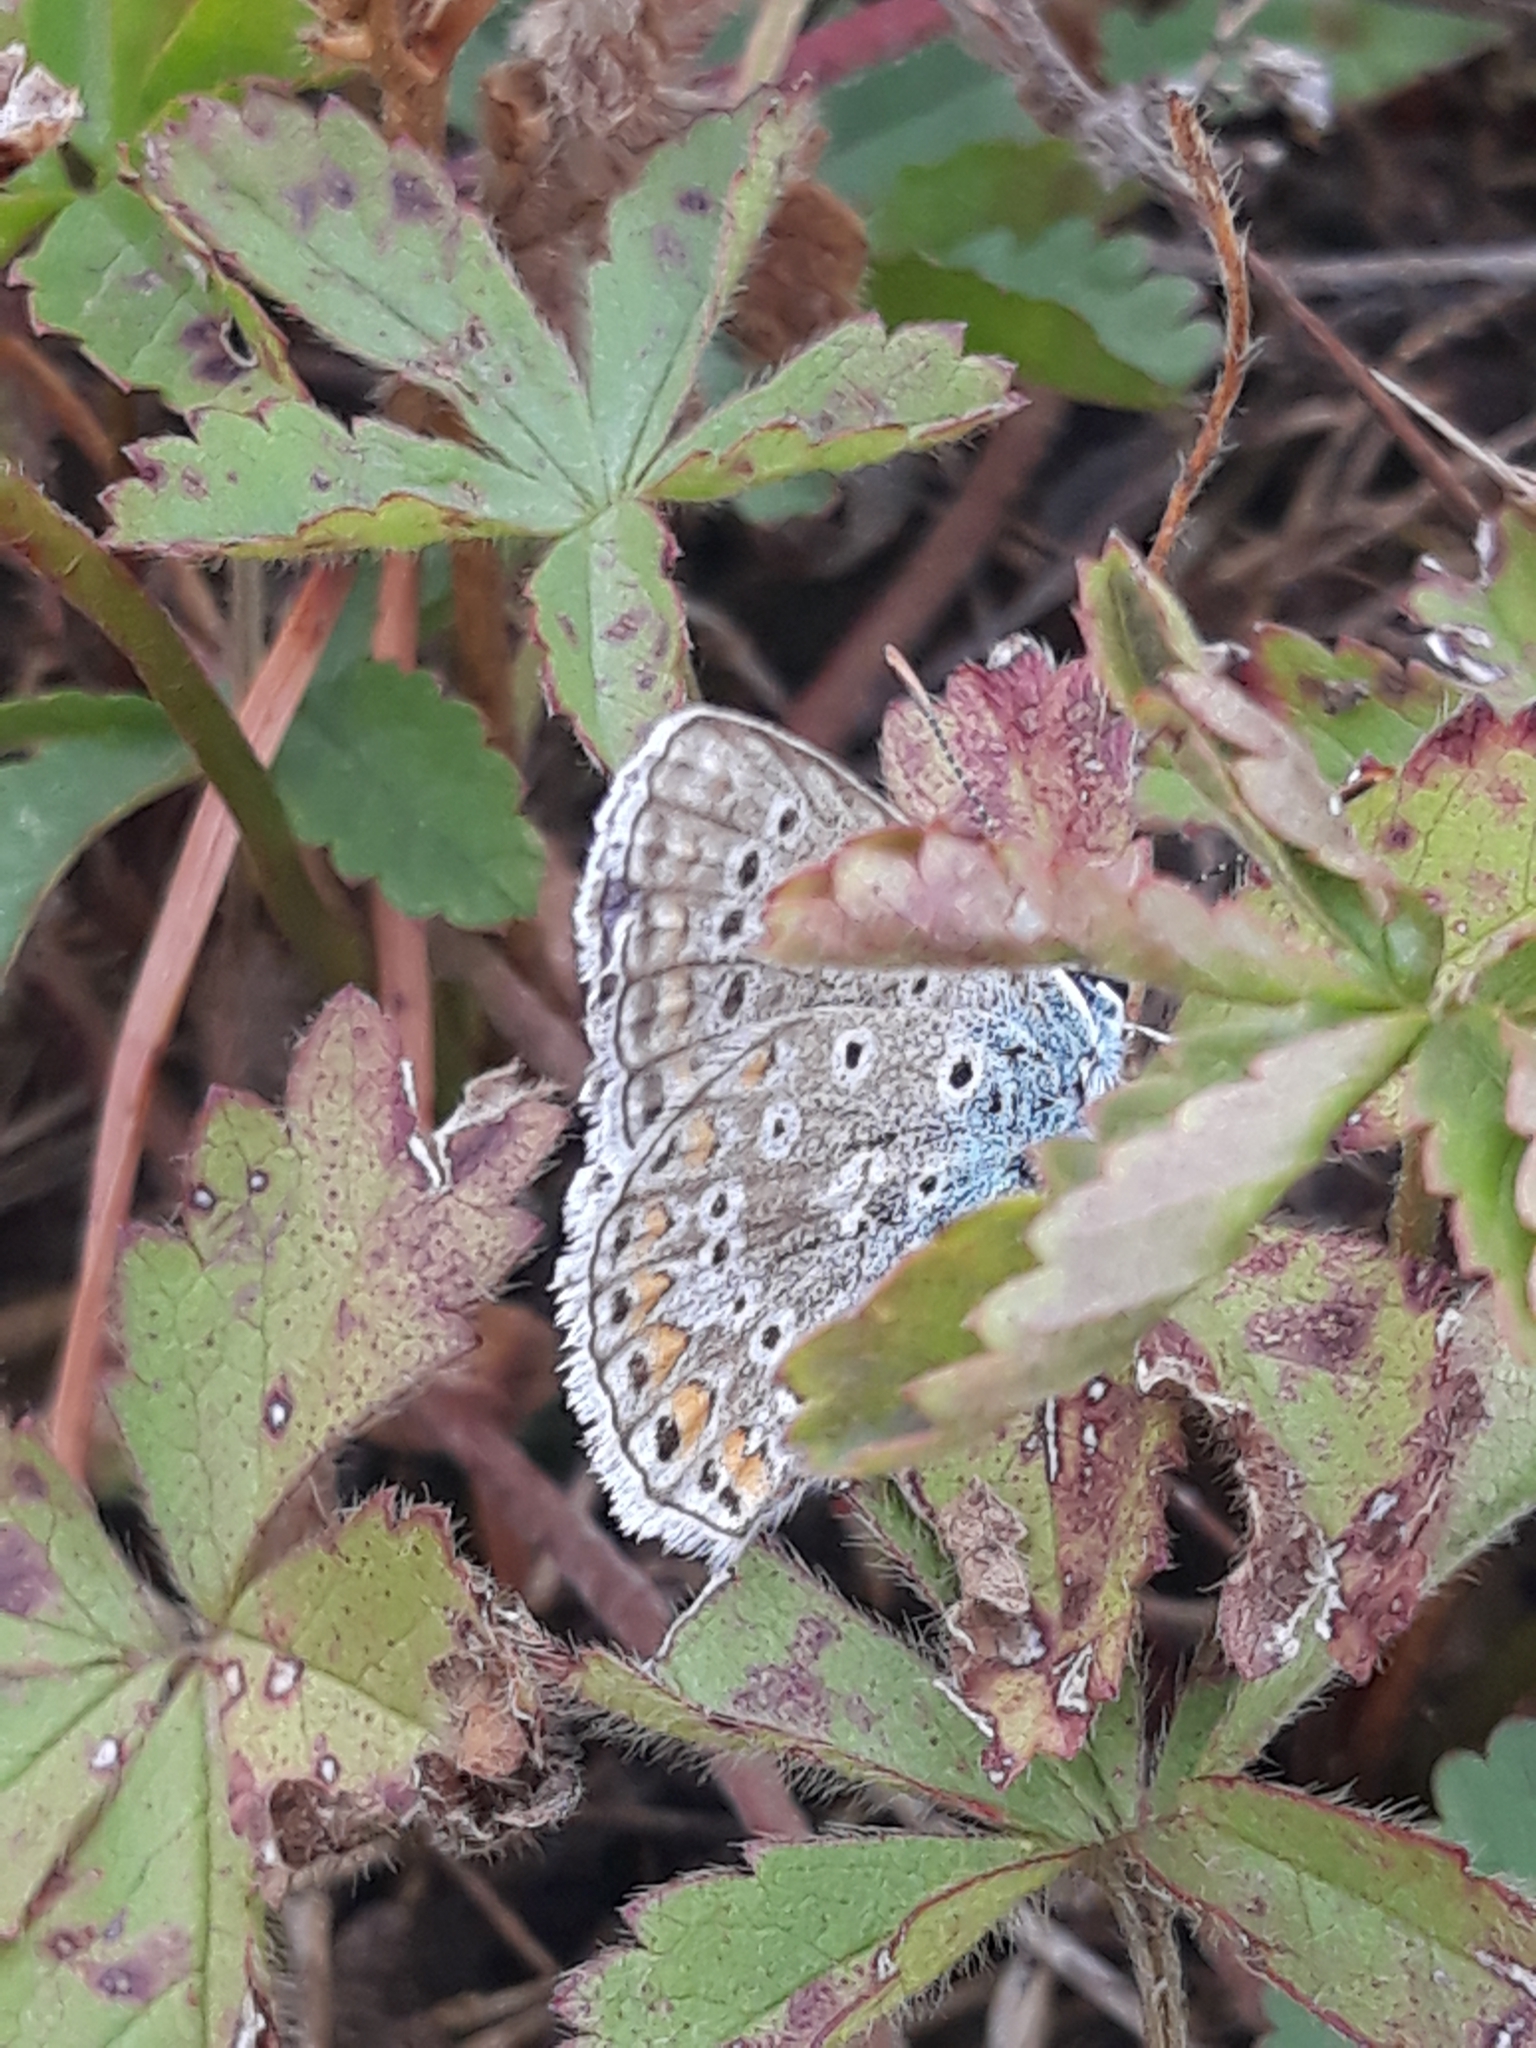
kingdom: Animalia
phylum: Arthropoda
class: Insecta
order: Lepidoptera
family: Lycaenidae
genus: Polyommatus
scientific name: Polyommatus icarus
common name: Common blue
